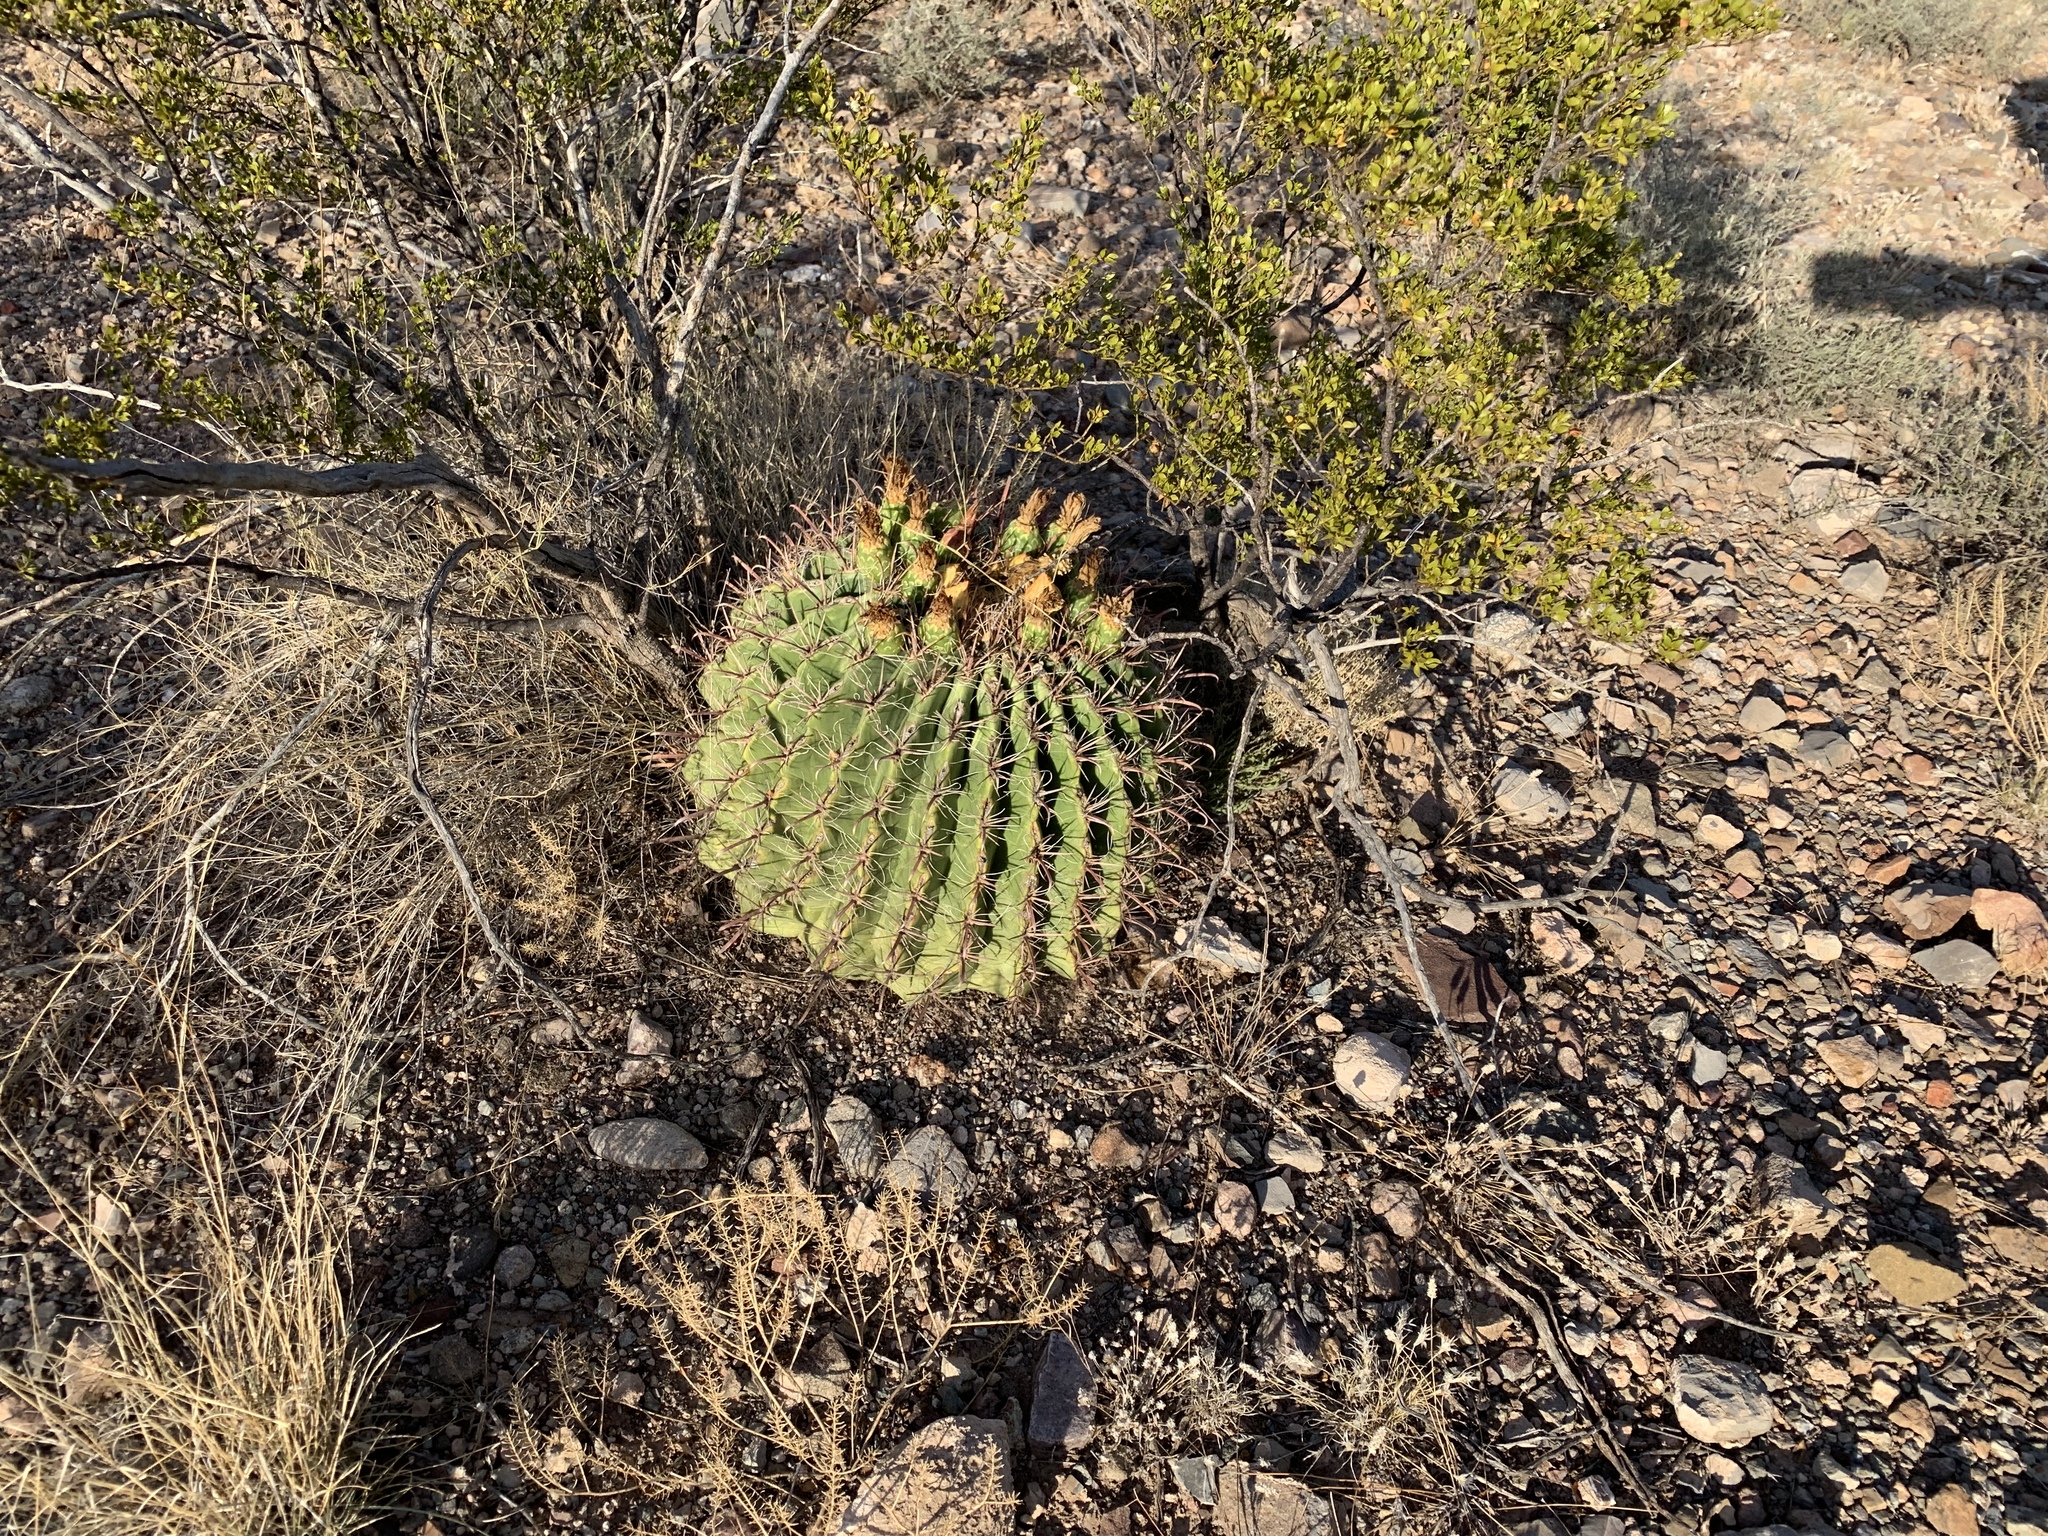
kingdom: Plantae
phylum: Tracheophyta
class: Magnoliopsida
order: Caryophyllales
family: Cactaceae
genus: Ferocactus
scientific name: Ferocactus wislizeni
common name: Candy barrel cactus
